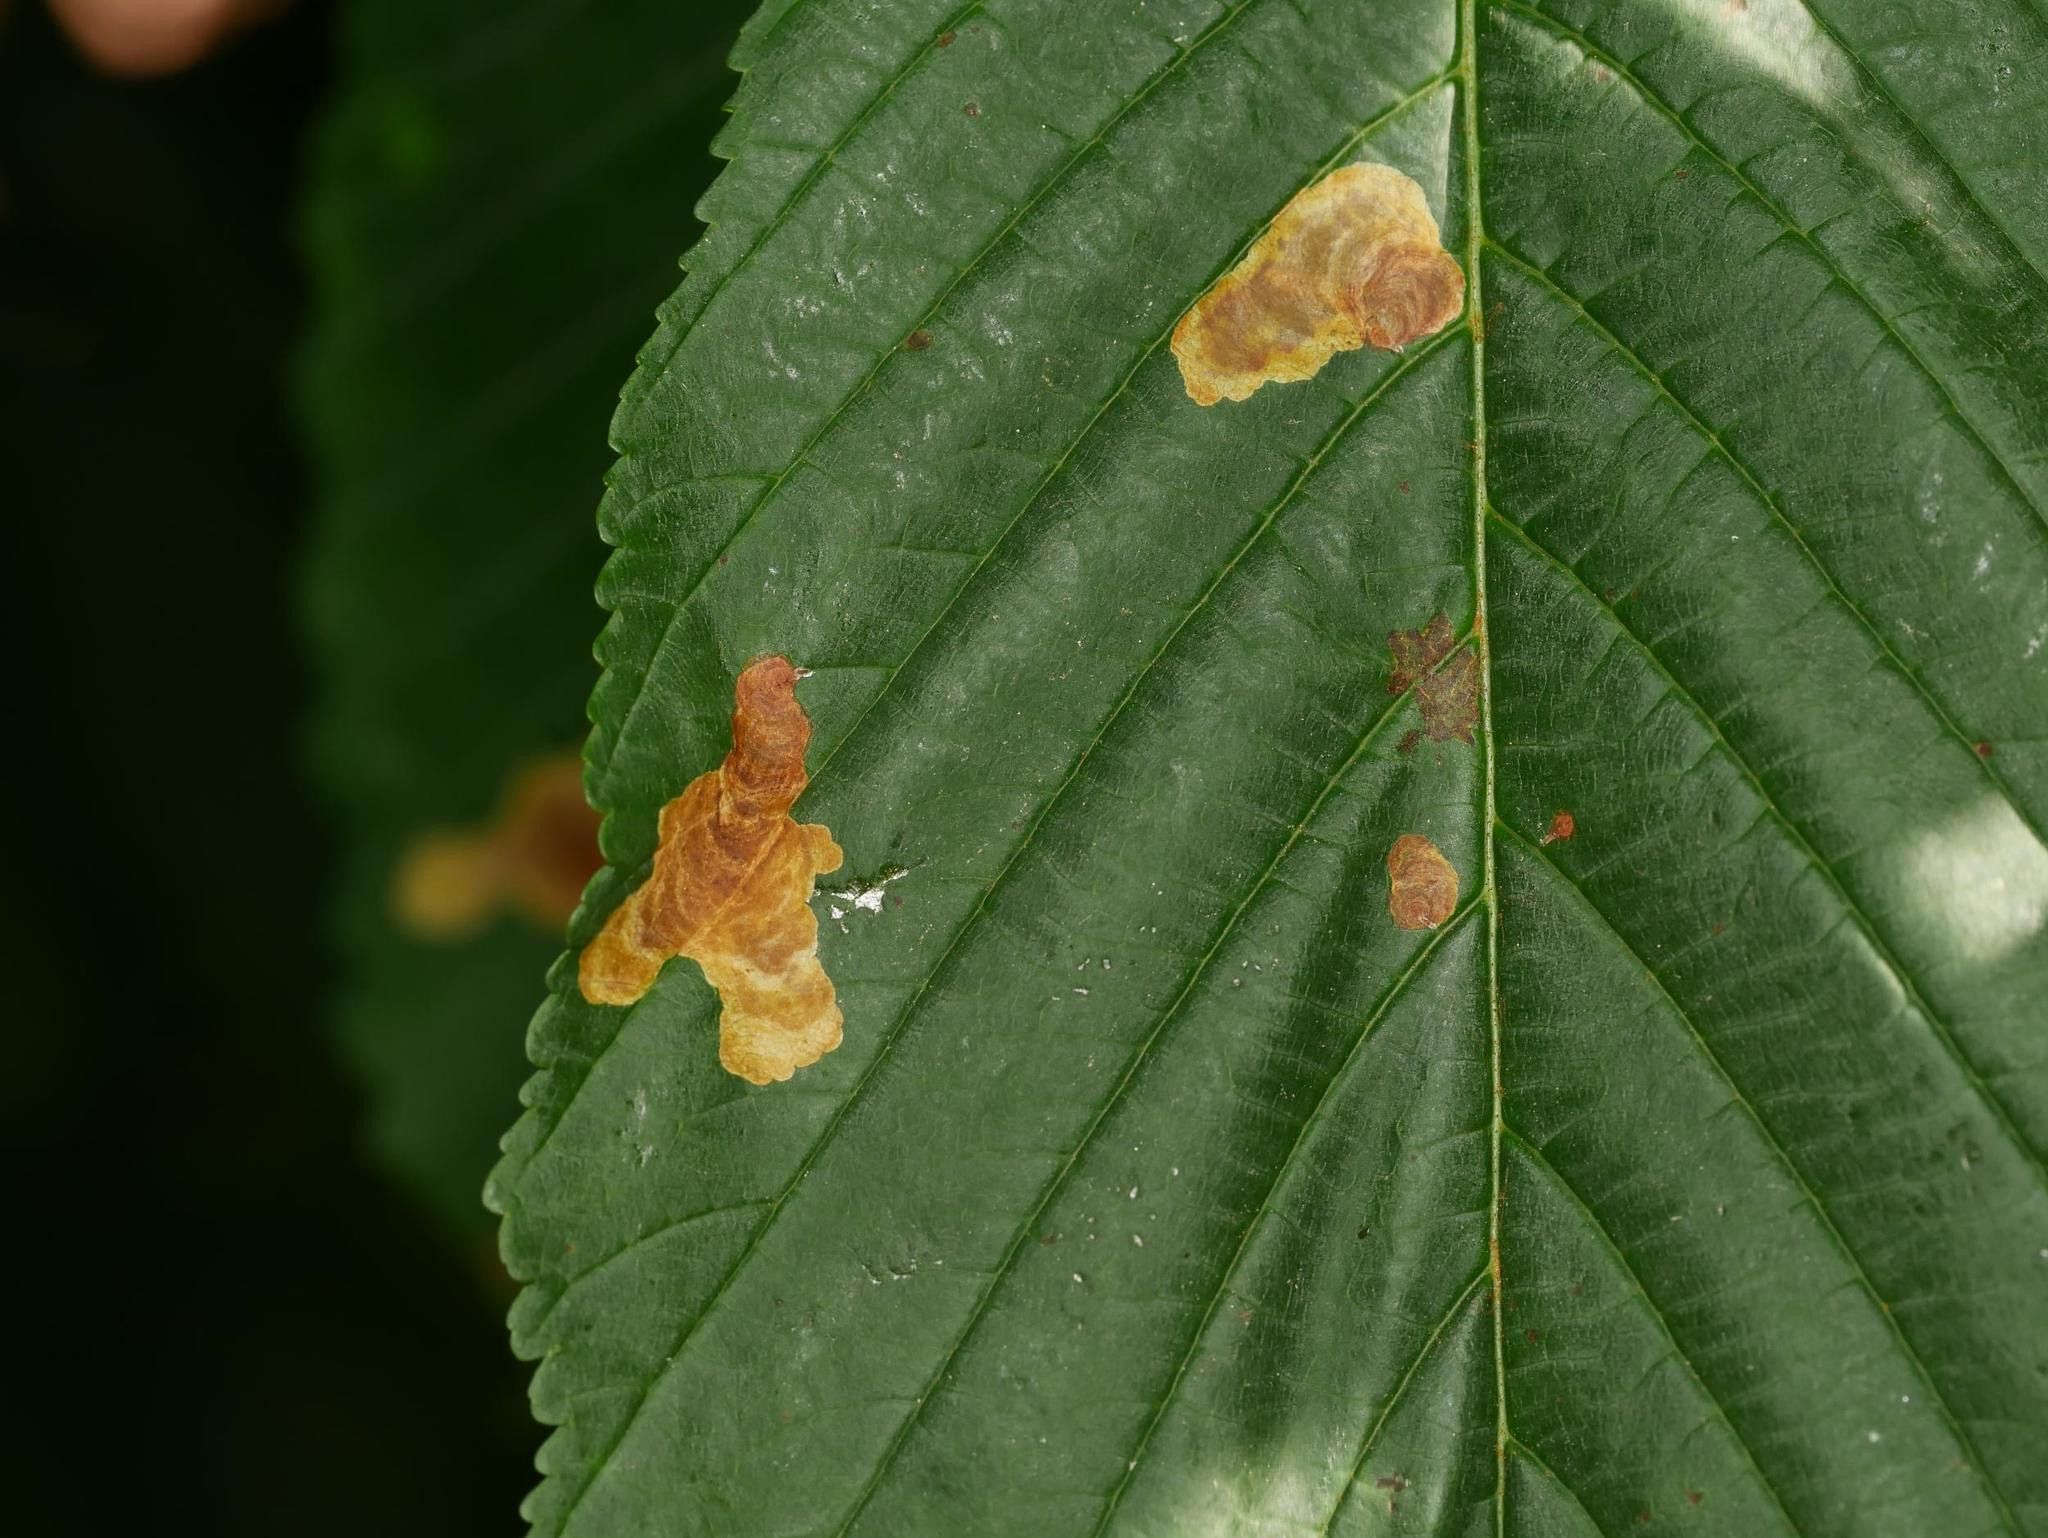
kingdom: Animalia
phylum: Arthropoda
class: Insecta
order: Lepidoptera
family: Gracillariidae
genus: Cameraria
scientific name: Cameraria ohridella
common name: Horse-chestnut leaf-miner
